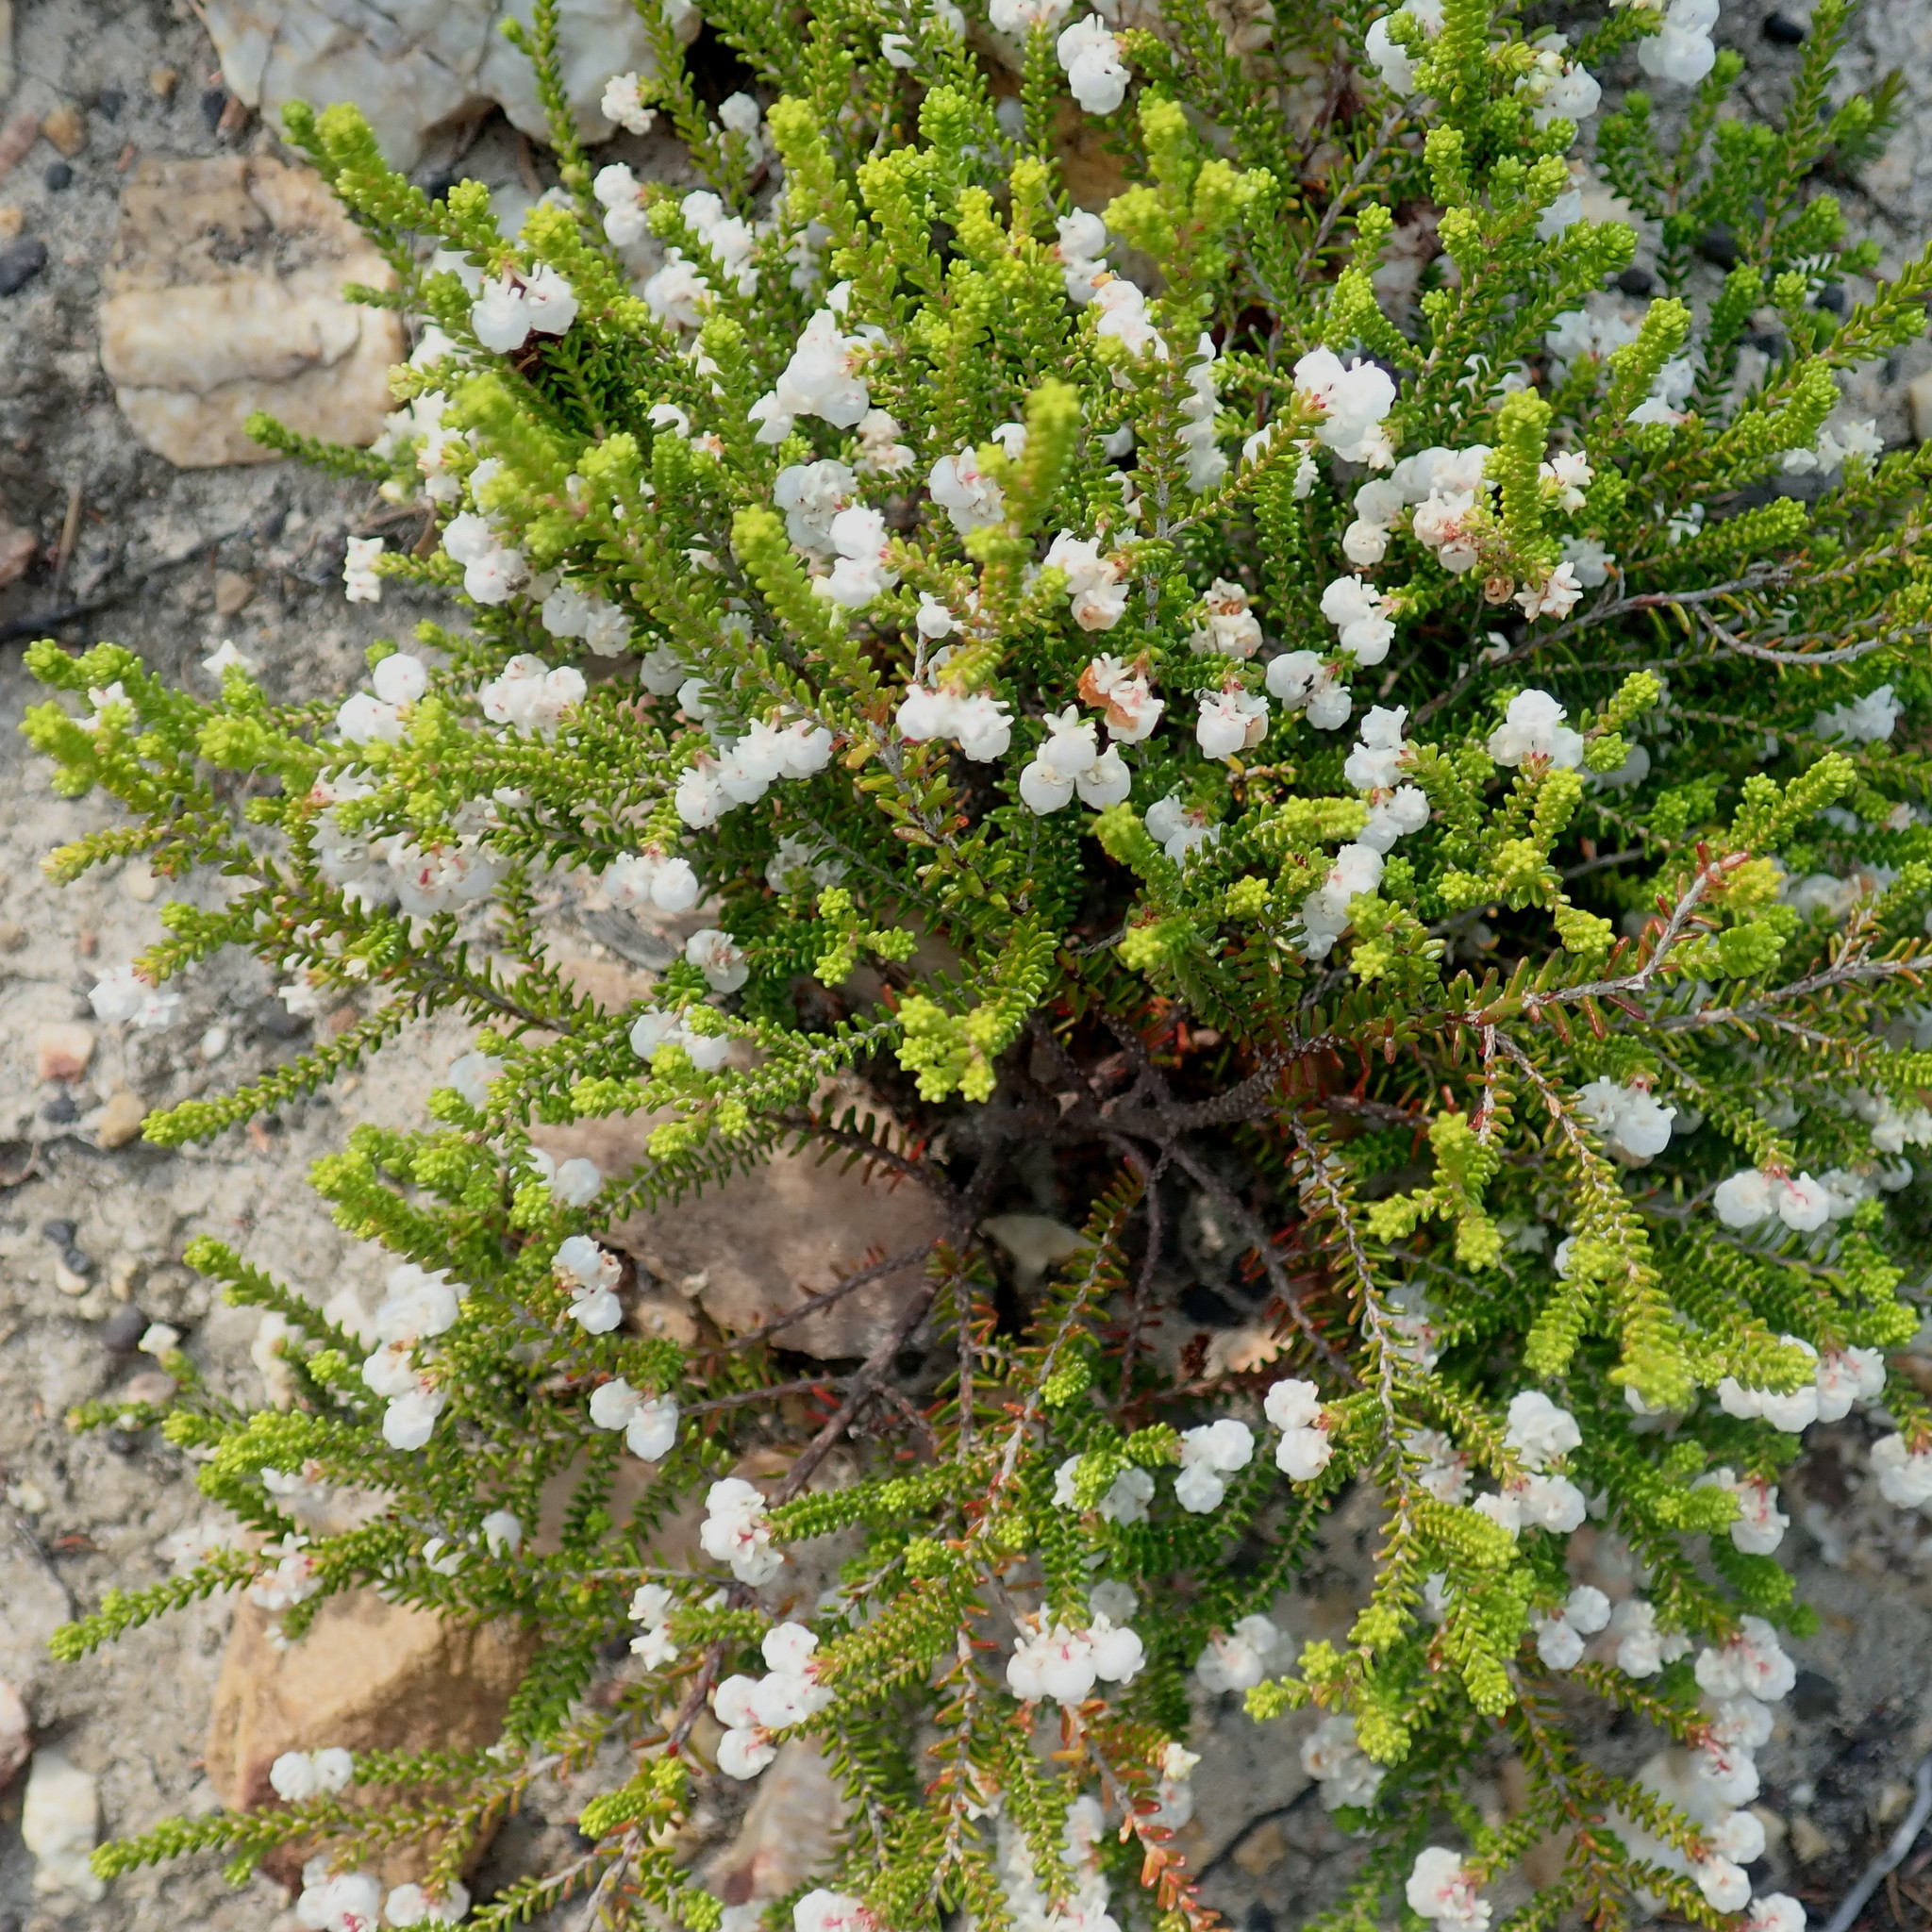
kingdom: Plantae
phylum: Tracheophyta
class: Magnoliopsida
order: Ericales
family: Ericaceae
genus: Erica
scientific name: Erica formosa
